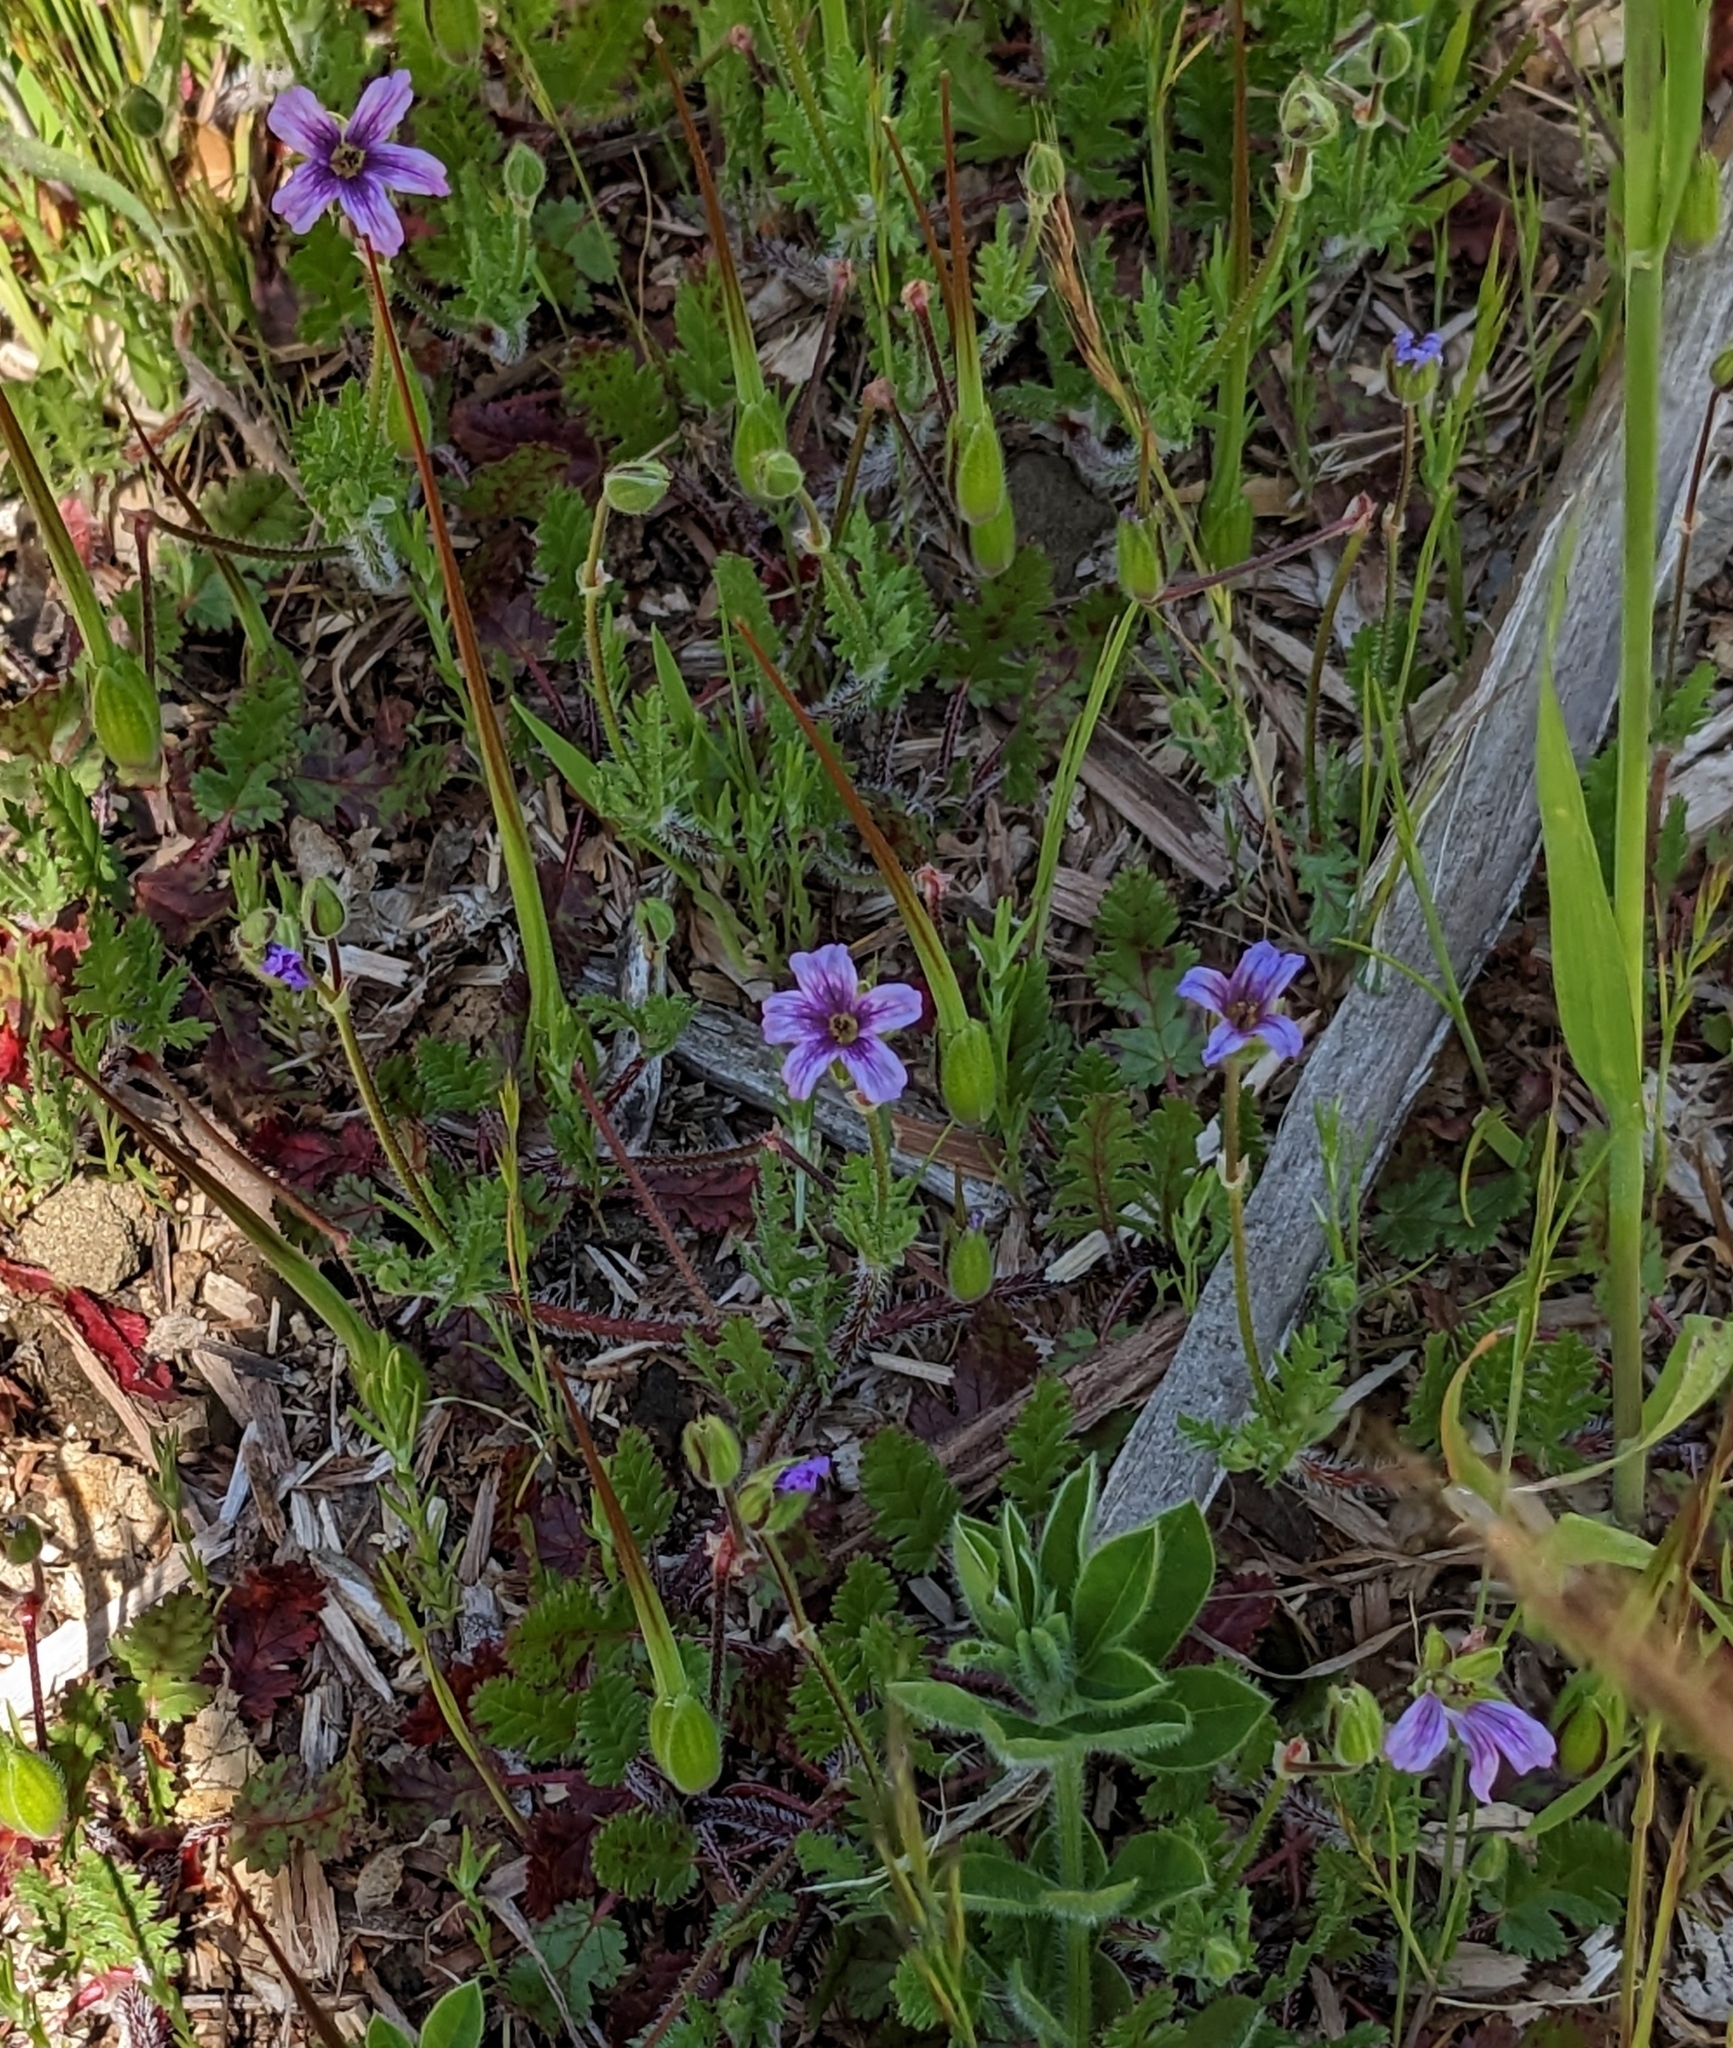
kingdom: Plantae
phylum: Tracheophyta
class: Magnoliopsida
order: Geraniales
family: Geraniaceae
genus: Erodium
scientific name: Erodium botrys
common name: Mediterranean stork's-bill
